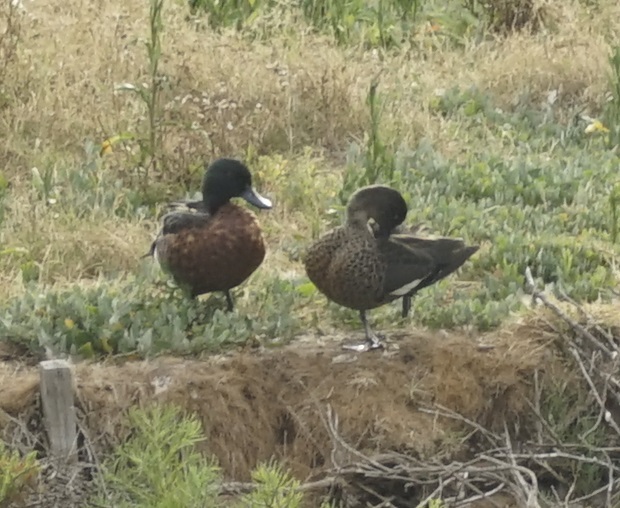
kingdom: Animalia
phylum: Chordata
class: Aves
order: Anseriformes
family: Anatidae
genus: Anas
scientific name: Anas castanea
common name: Chestnut teal
